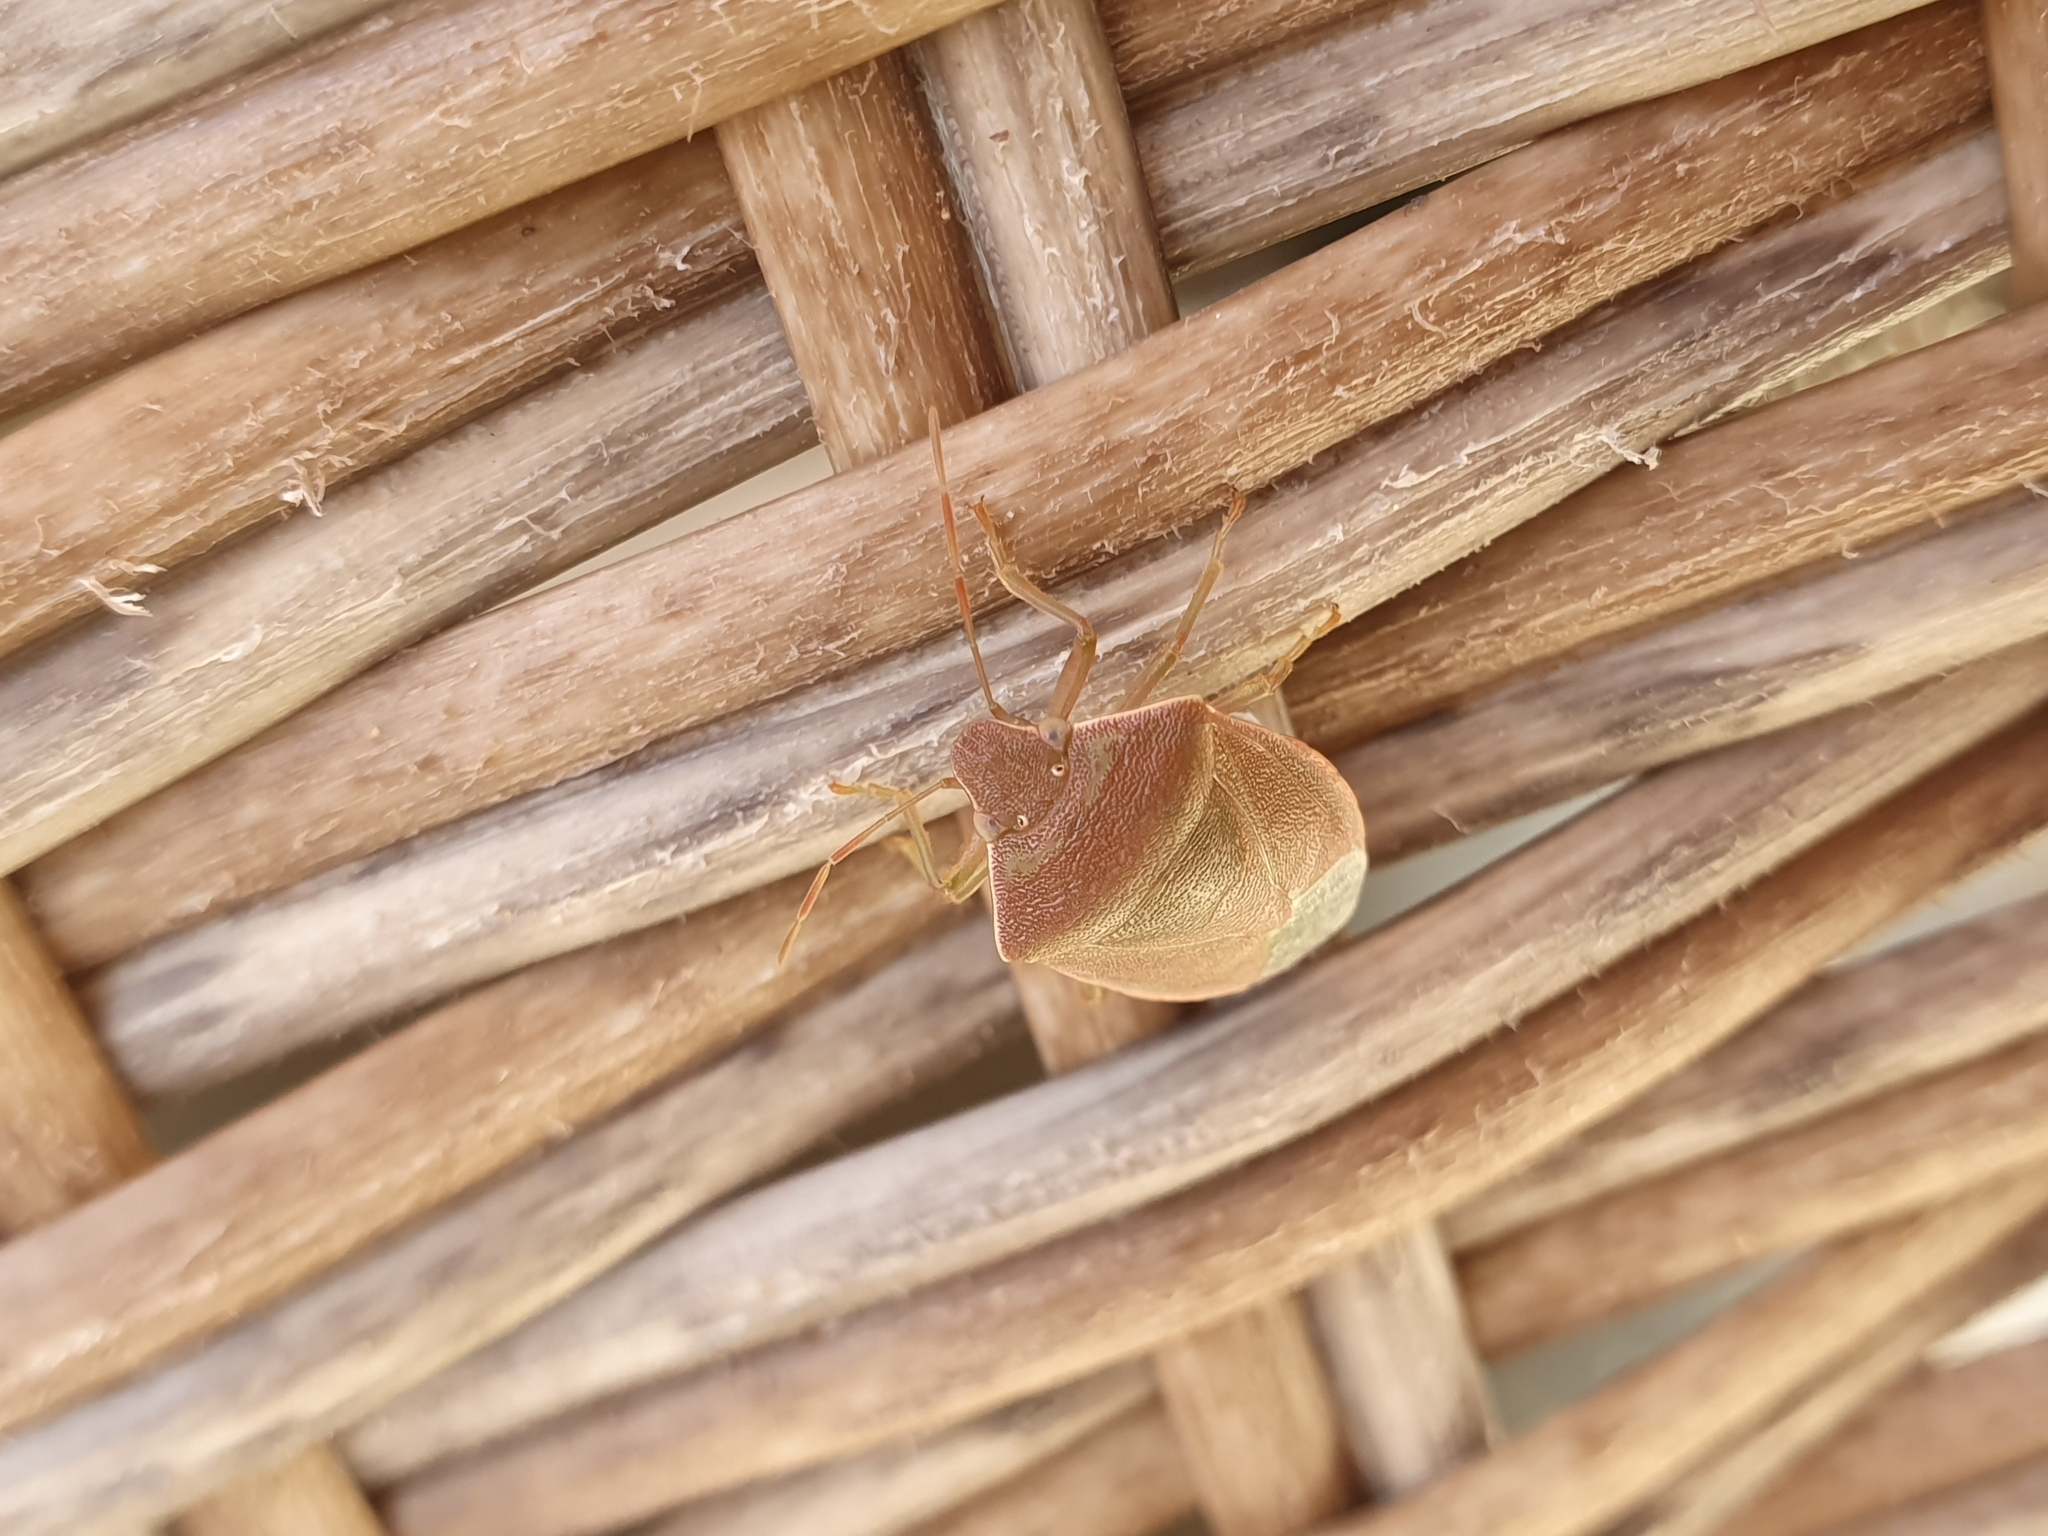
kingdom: Animalia
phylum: Arthropoda
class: Insecta
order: Hemiptera
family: Pentatomidae
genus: Acrosternum
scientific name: Acrosternum heegeri
